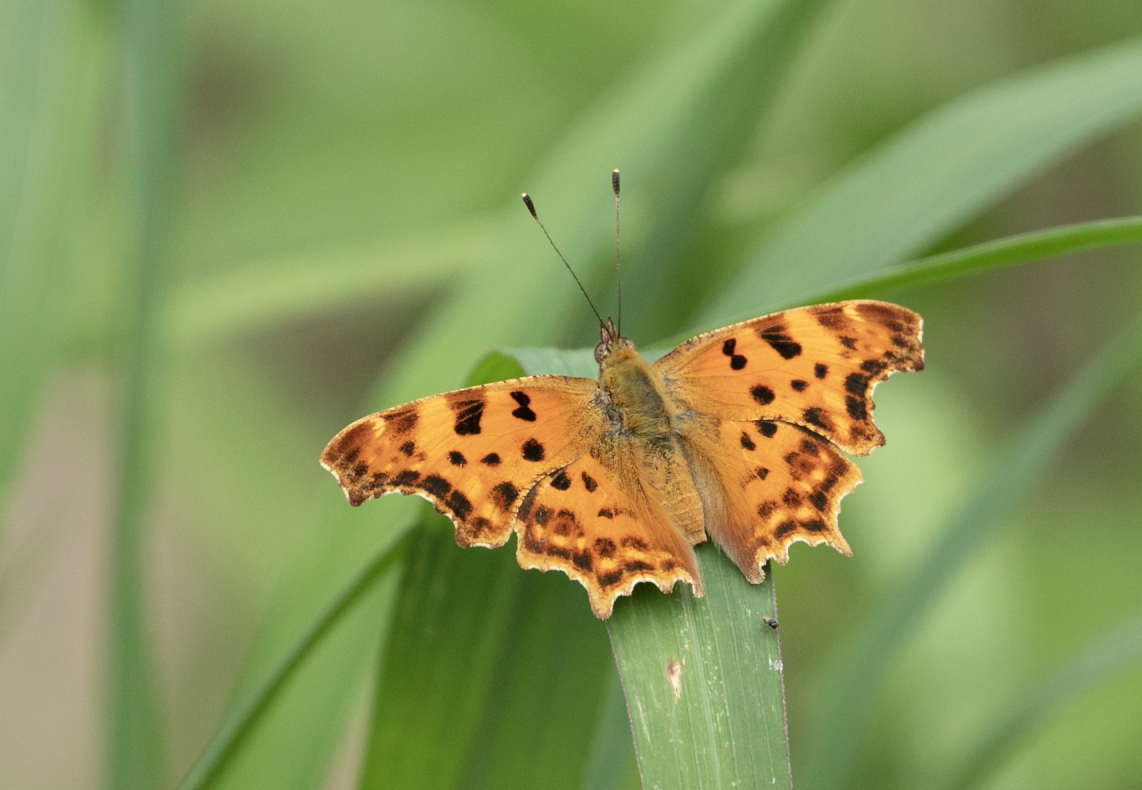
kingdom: Animalia
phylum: Arthropoda
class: Insecta
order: Lepidoptera
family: Nymphalidae
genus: Polygonia
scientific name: Polygonia c-album
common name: Comma
